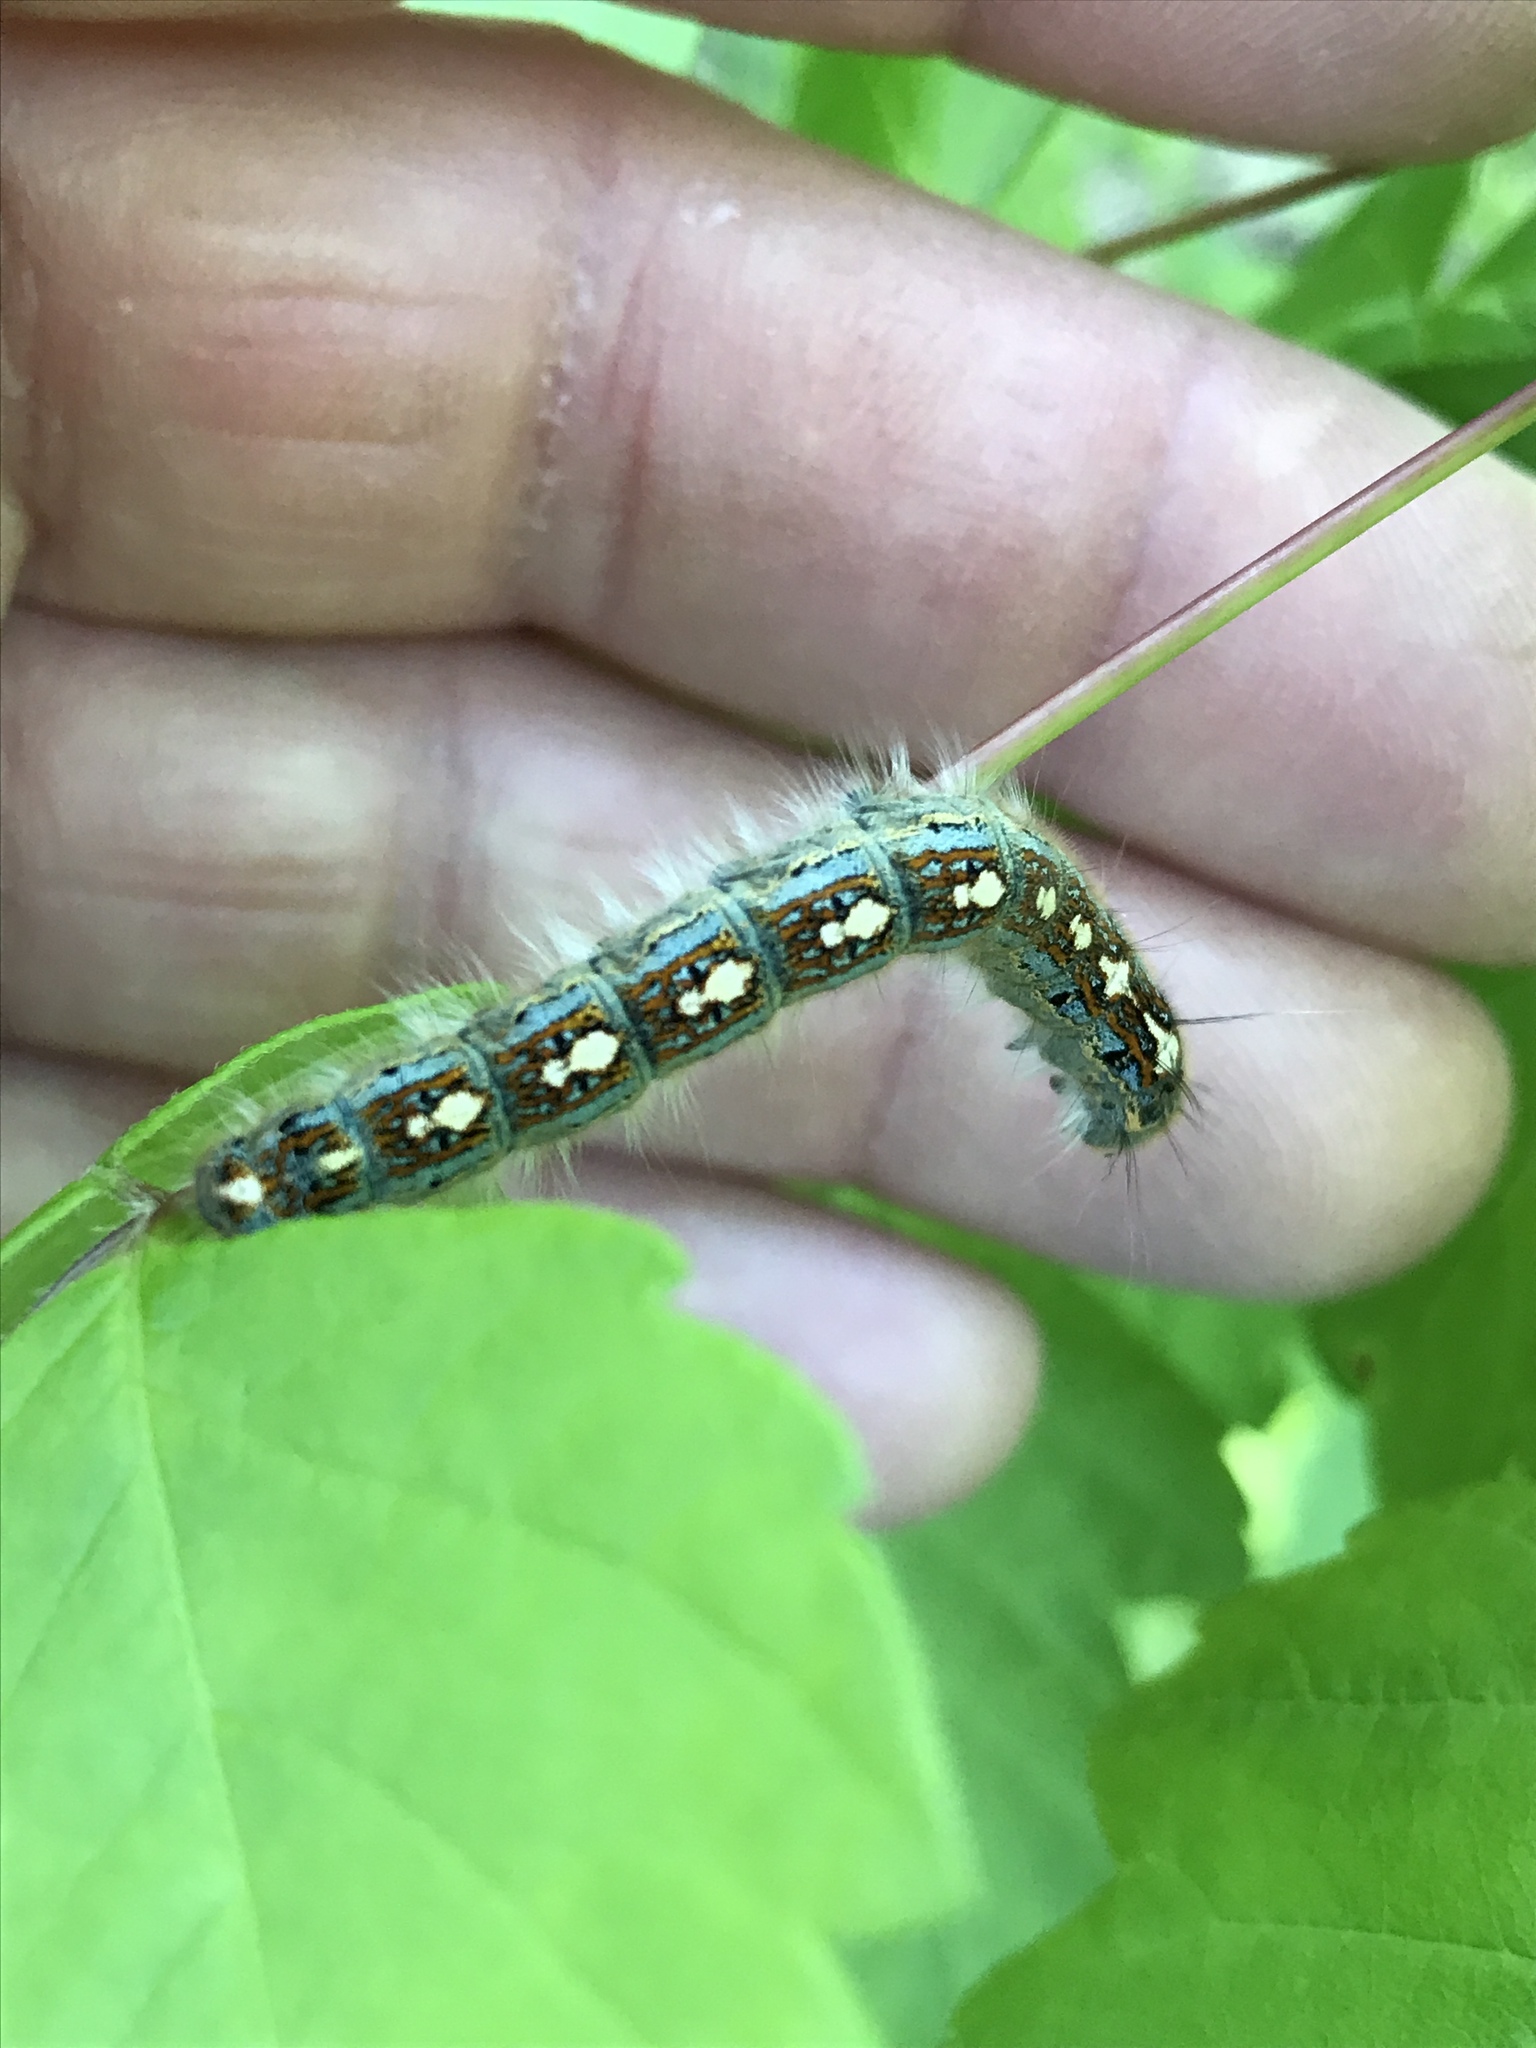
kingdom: Animalia
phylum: Arthropoda
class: Insecta
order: Lepidoptera
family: Lasiocampidae
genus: Malacosoma
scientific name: Malacosoma disstria
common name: Forest tent caterpillar
